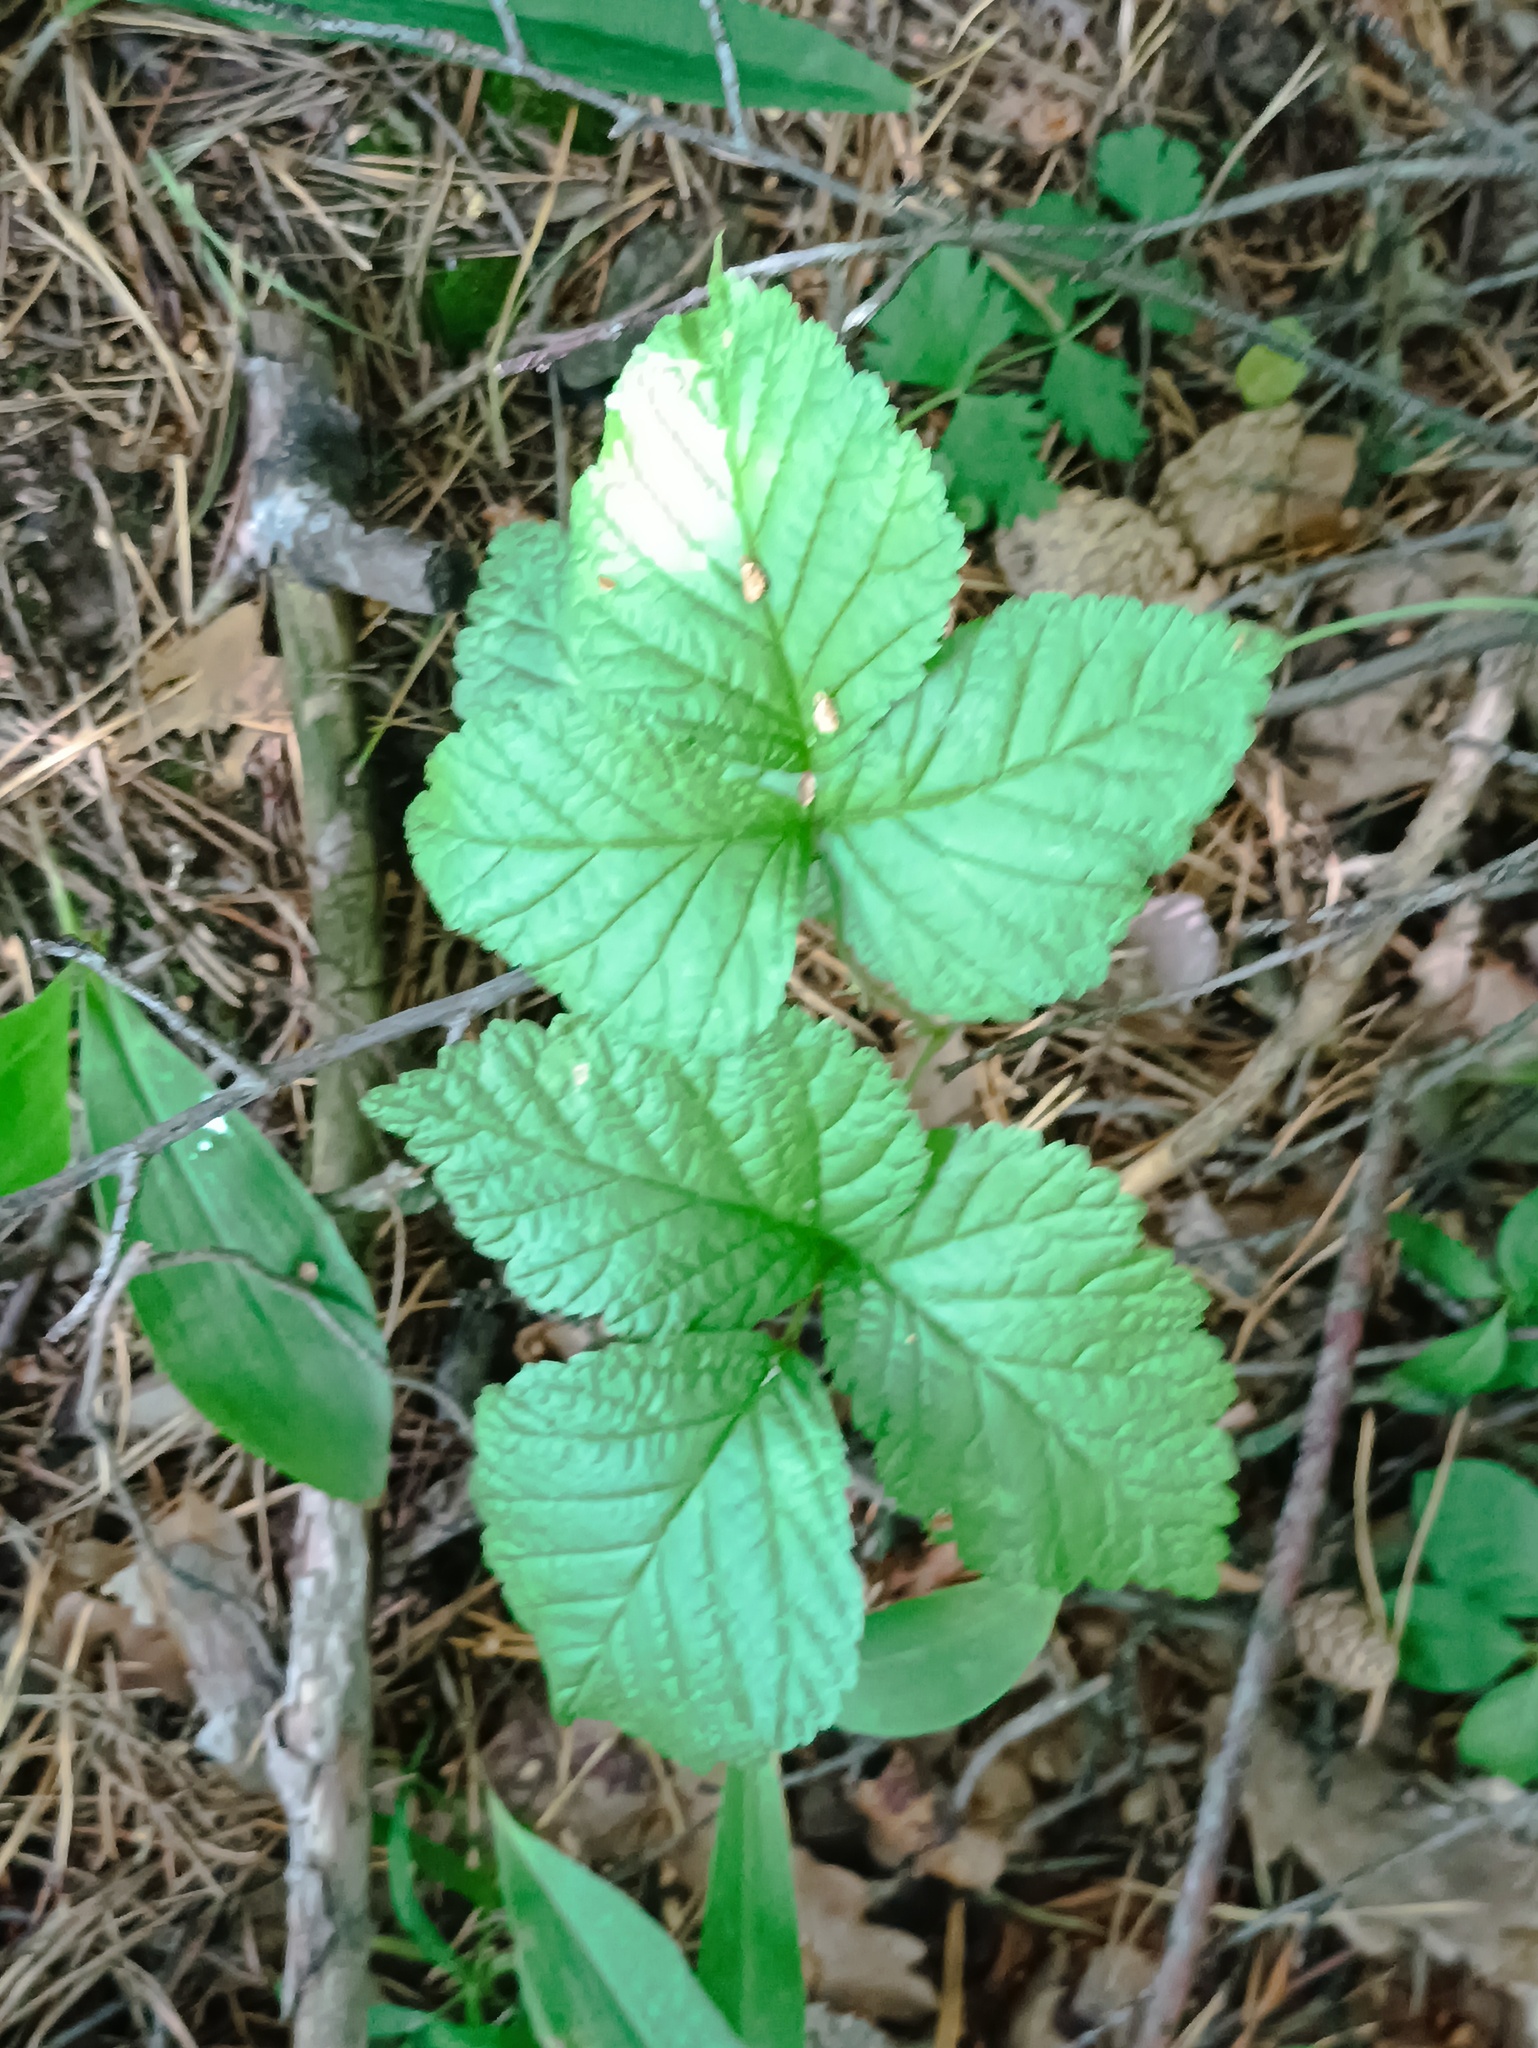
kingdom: Plantae
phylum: Tracheophyta
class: Magnoliopsida
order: Rosales
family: Rosaceae
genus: Rubus
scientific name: Rubus saxatilis
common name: Stone bramble
